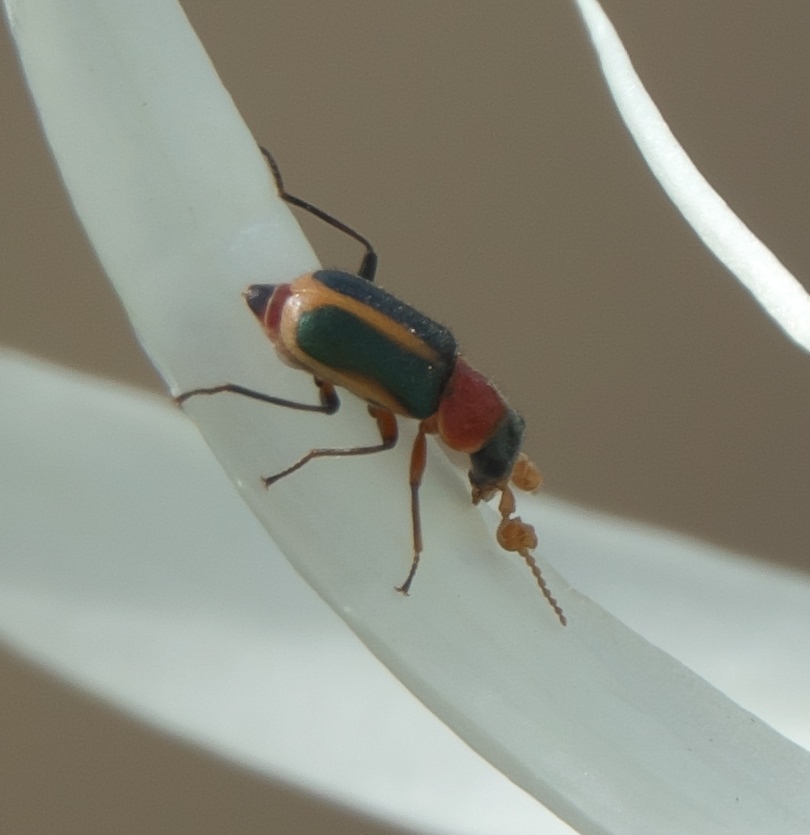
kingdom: Animalia
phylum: Arthropoda
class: Insecta
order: Coleoptera
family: Melyridae
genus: Collops
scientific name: Collops
